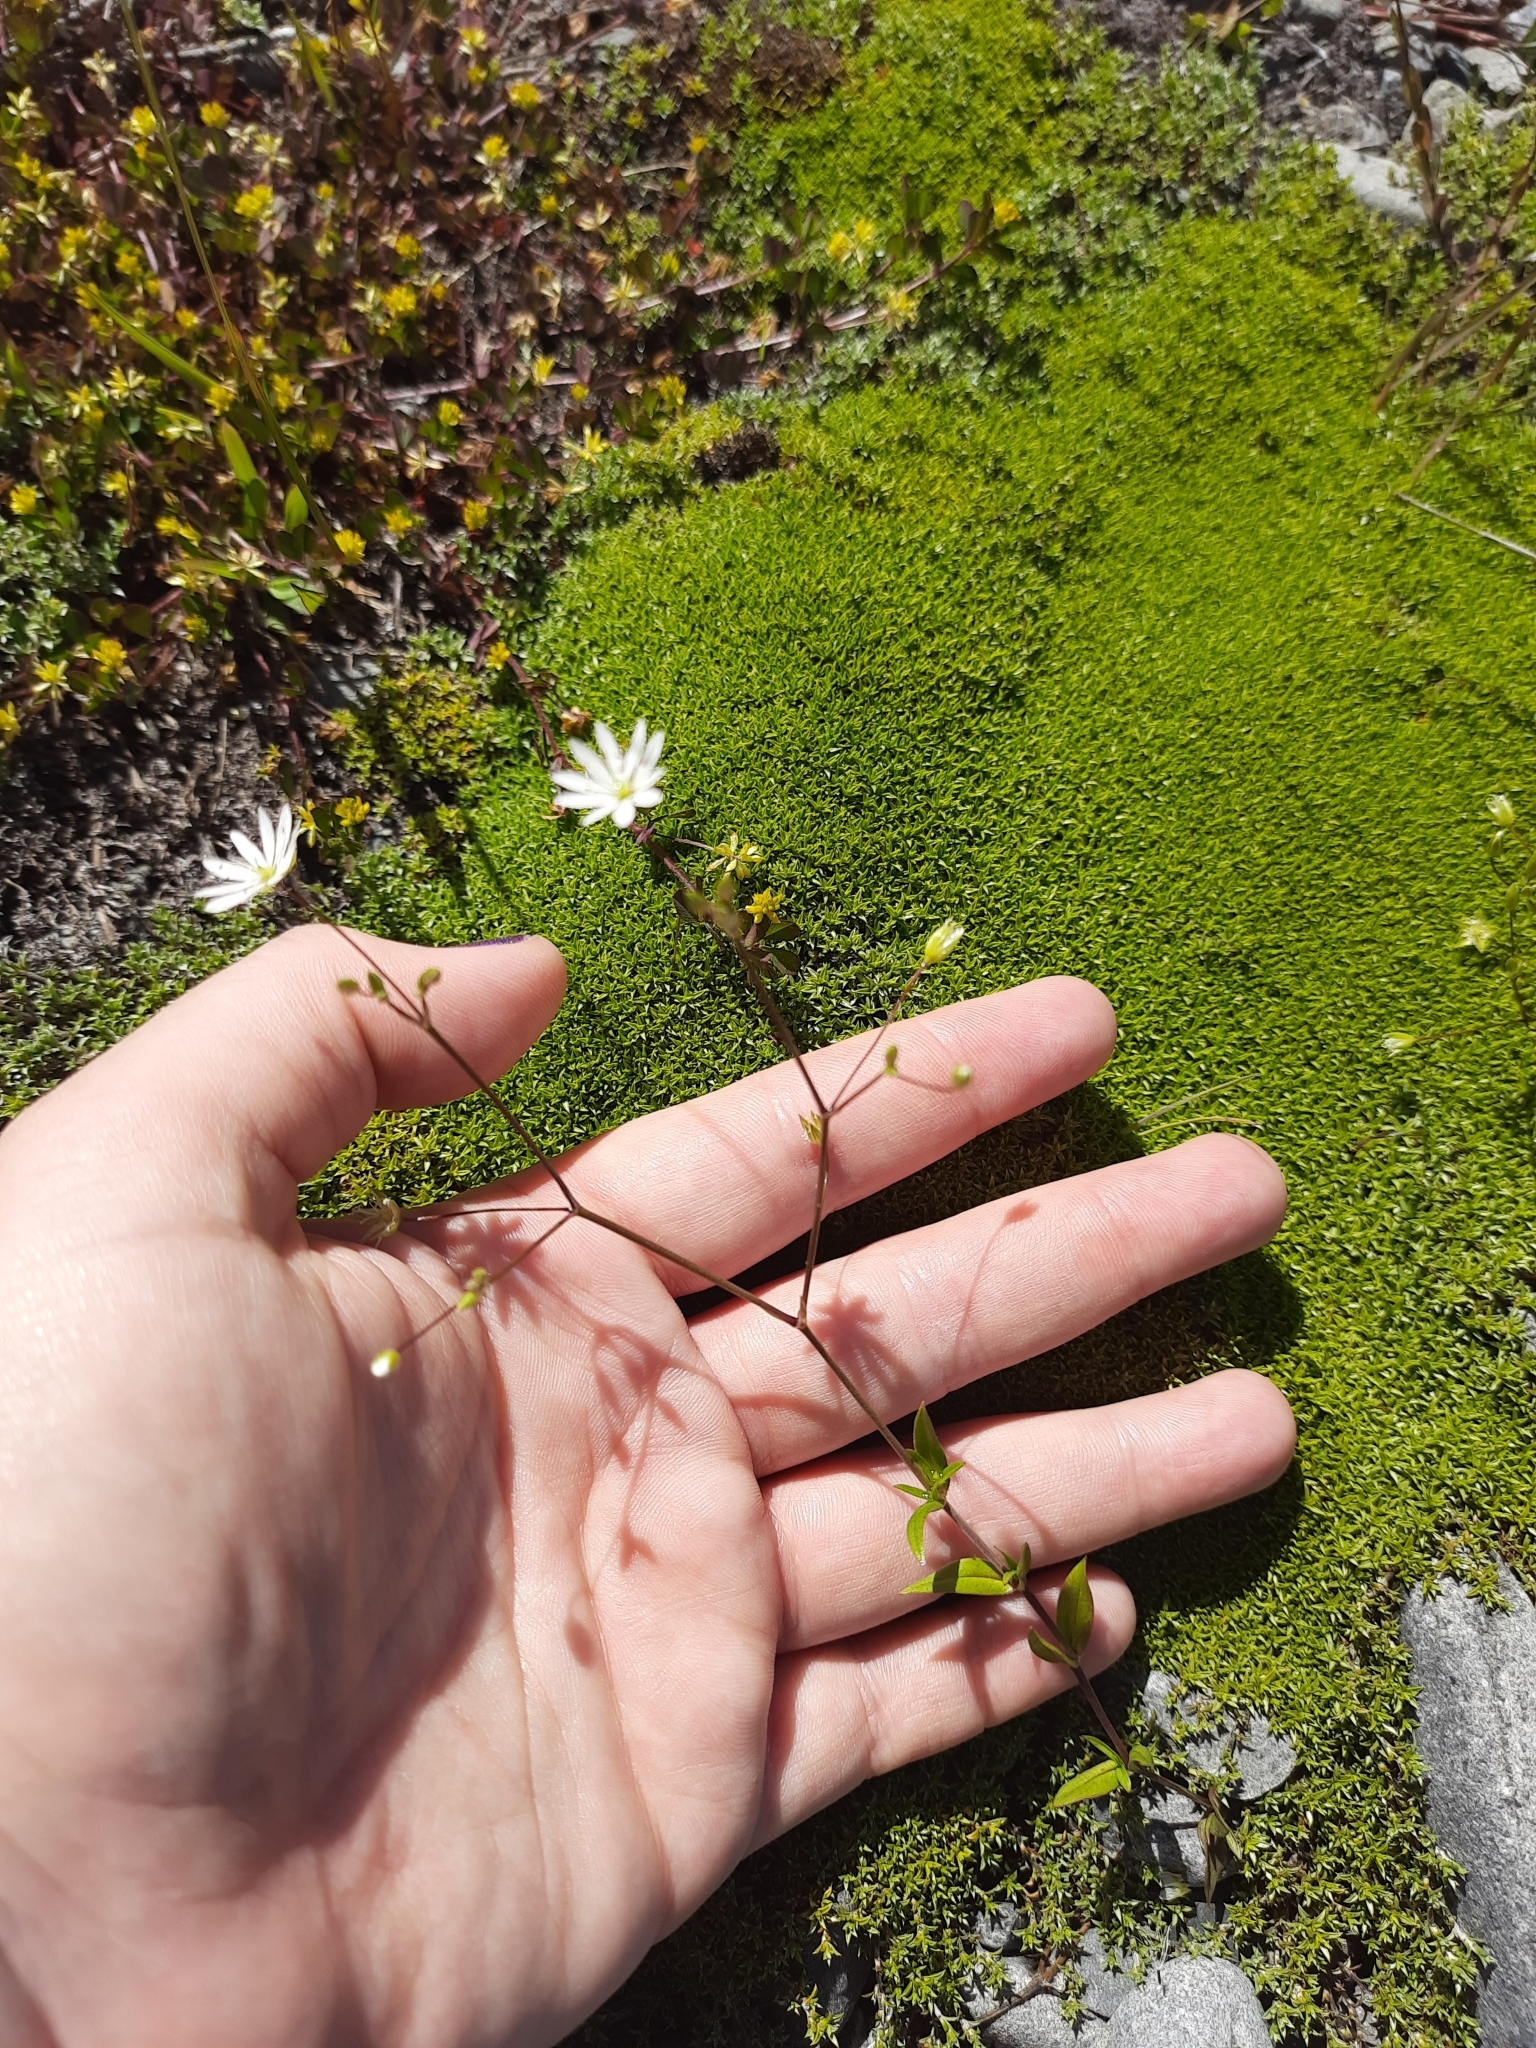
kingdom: Plantae
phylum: Tracheophyta
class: Magnoliopsida
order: Caryophyllales
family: Caryophyllaceae
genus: Stellaria
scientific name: Stellaria graminea
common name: Grass-like starwort
